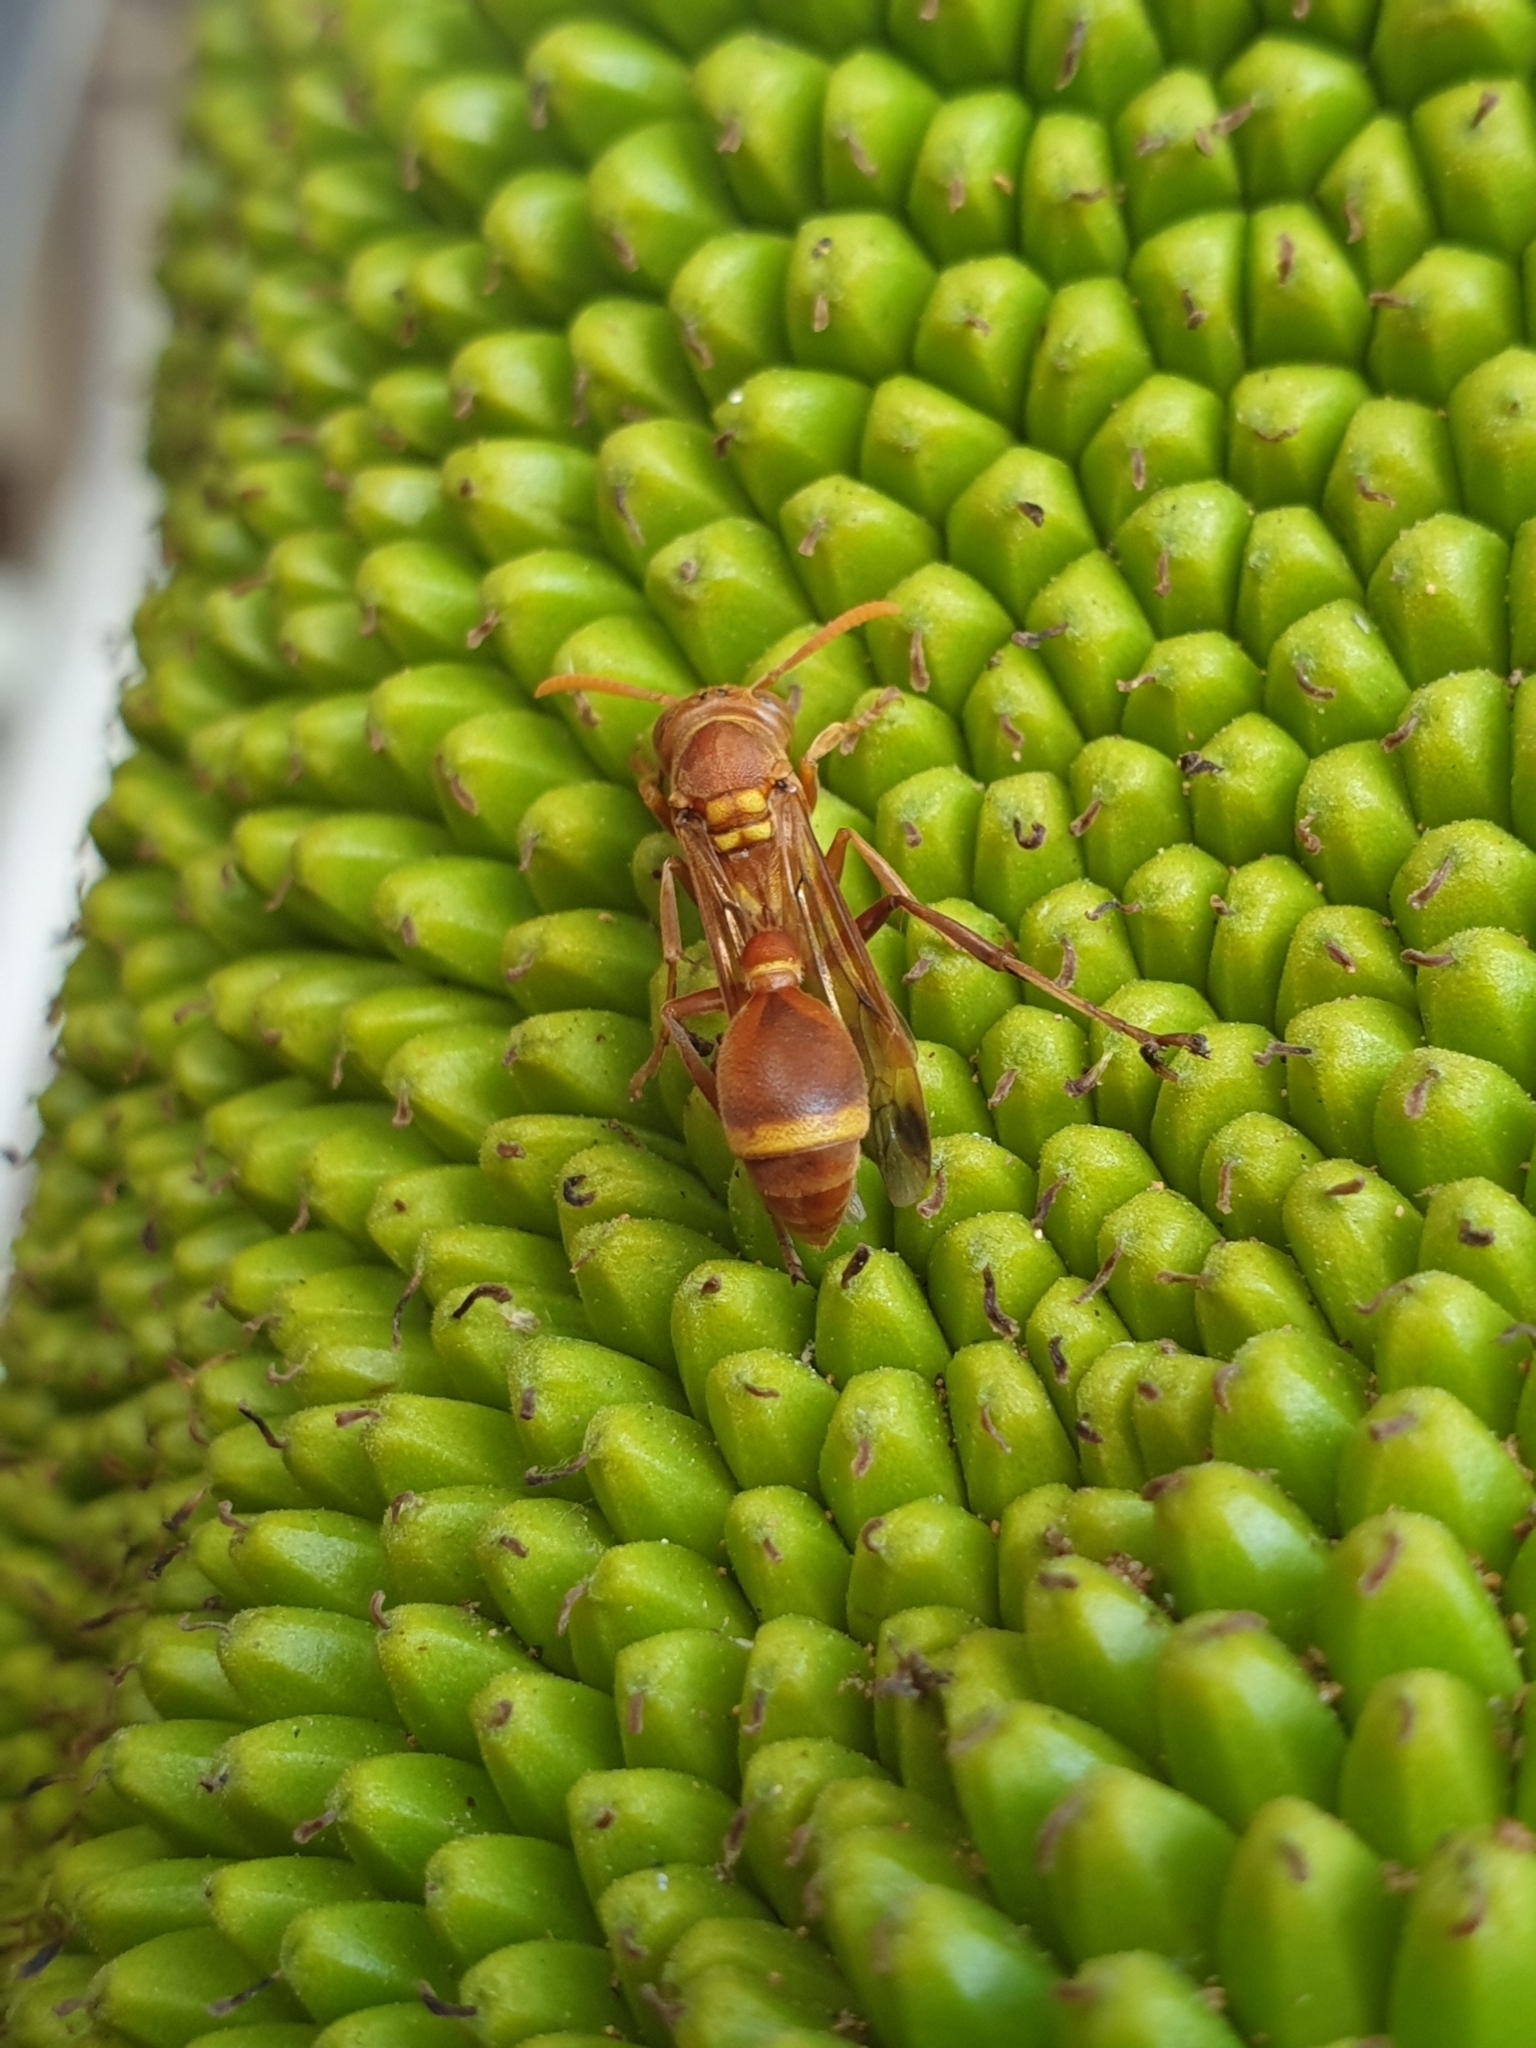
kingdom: Animalia
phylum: Arthropoda
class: Insecta
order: Hymenoptera
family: Vespidae
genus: Ropalidia
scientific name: Ropalidia marginata
